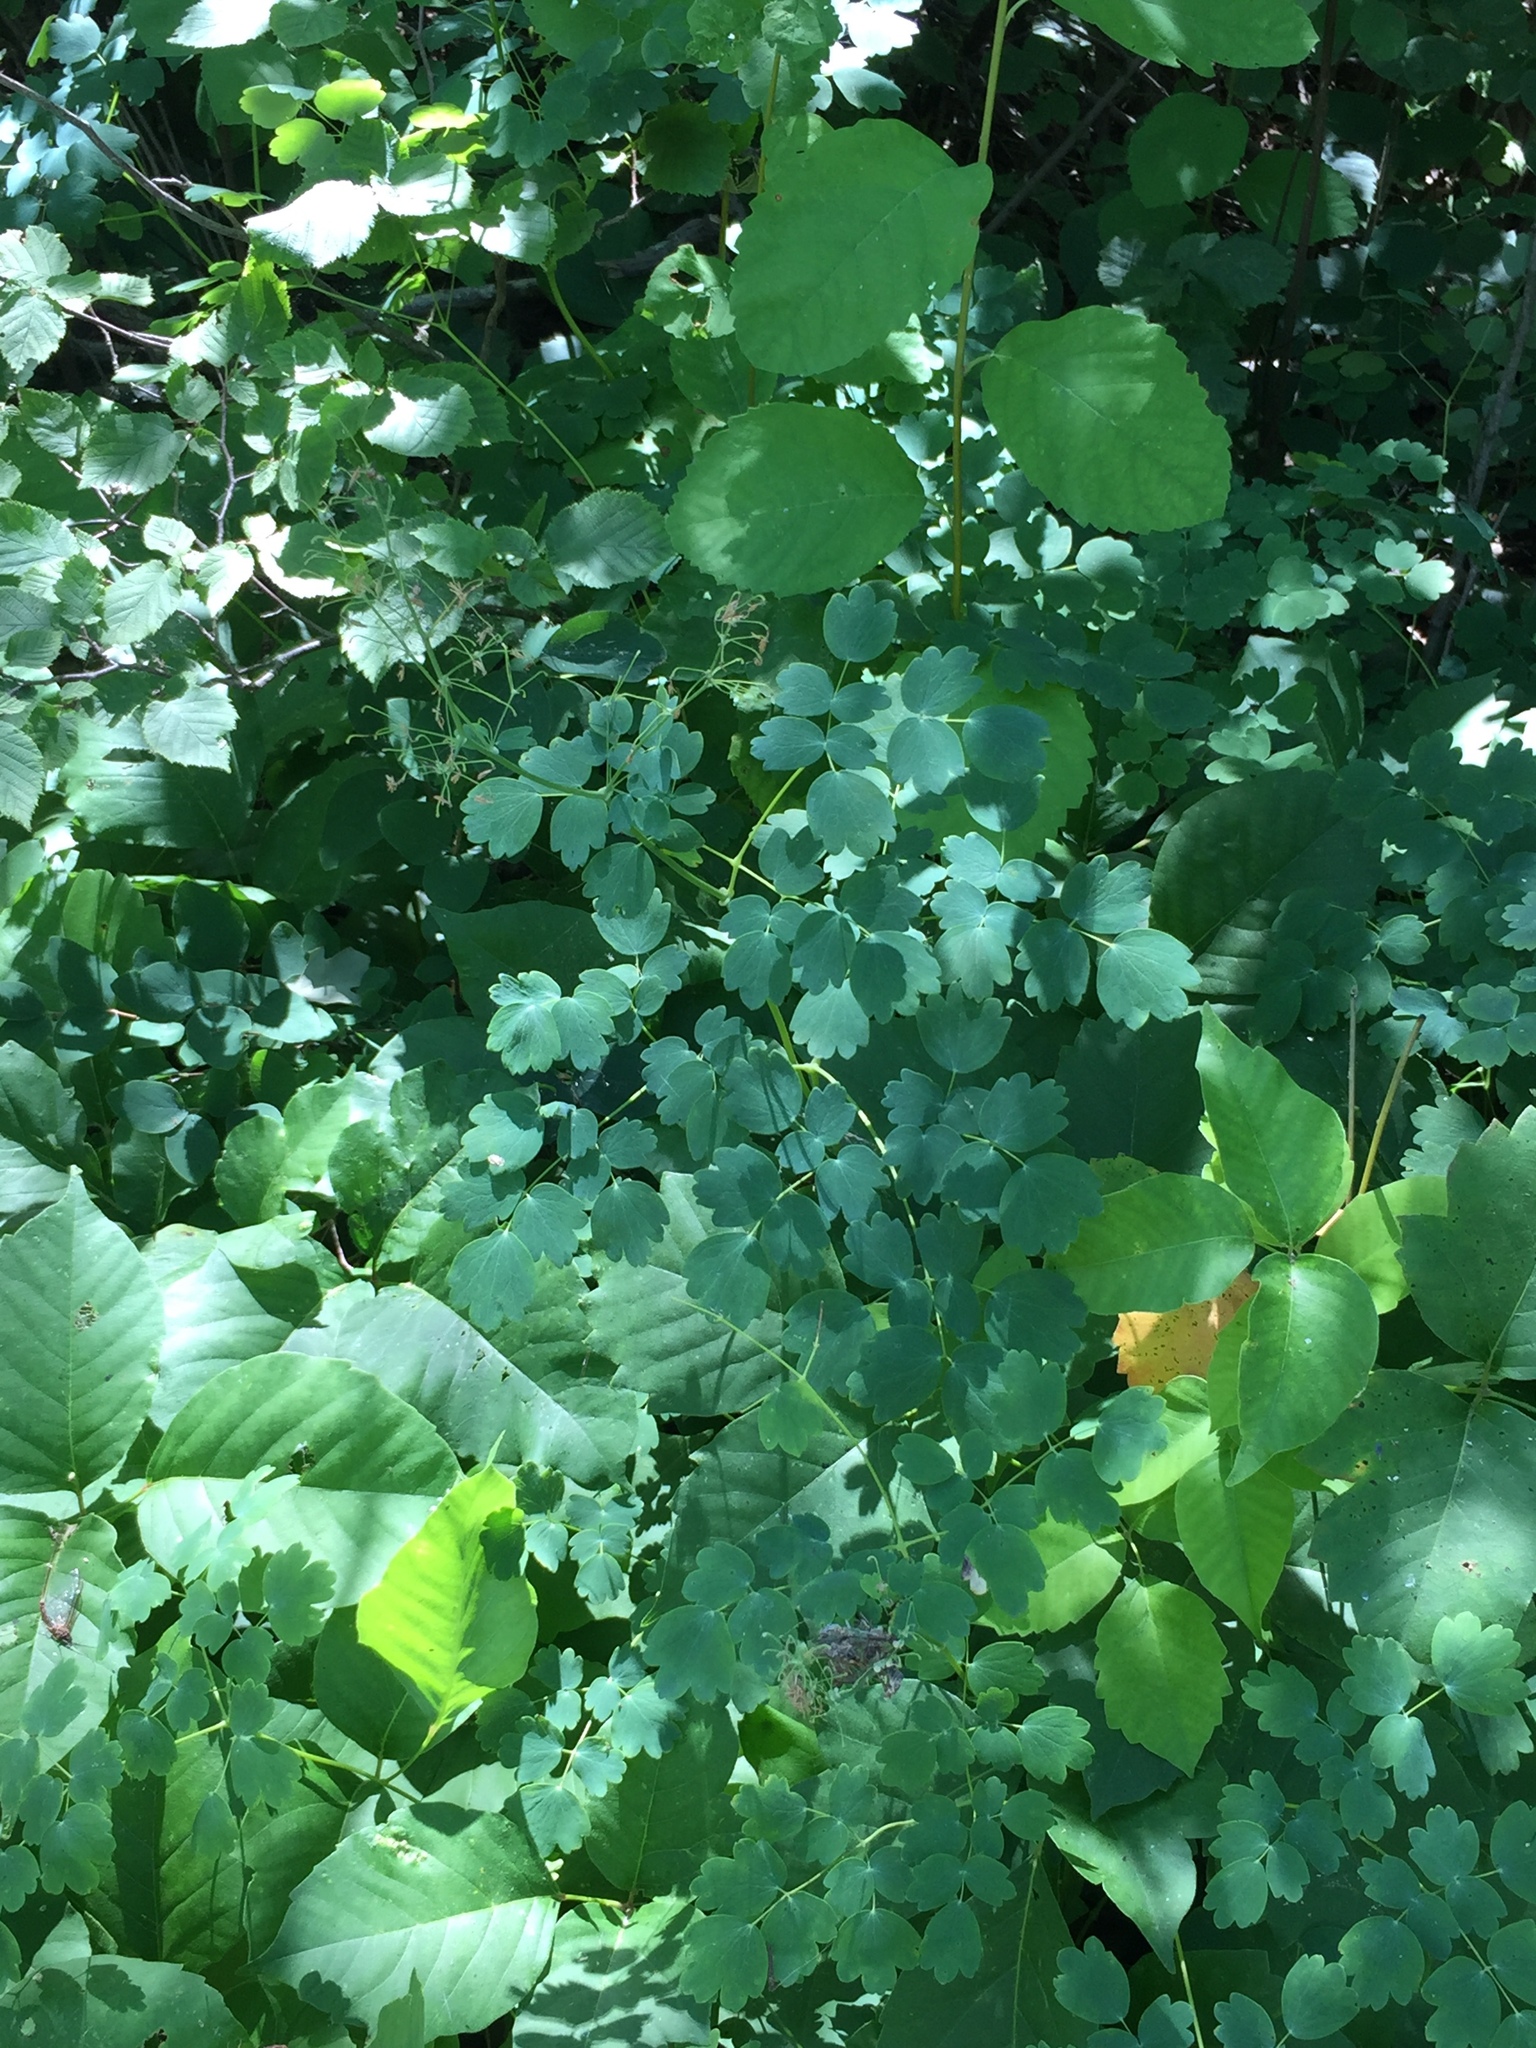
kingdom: Plantae
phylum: Tracheophyta
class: Magnoliopsida
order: Ranunculales
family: Ranunculaceae
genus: Thalictrum
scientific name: Thalictrum venulosum
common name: Early meadow-rue
